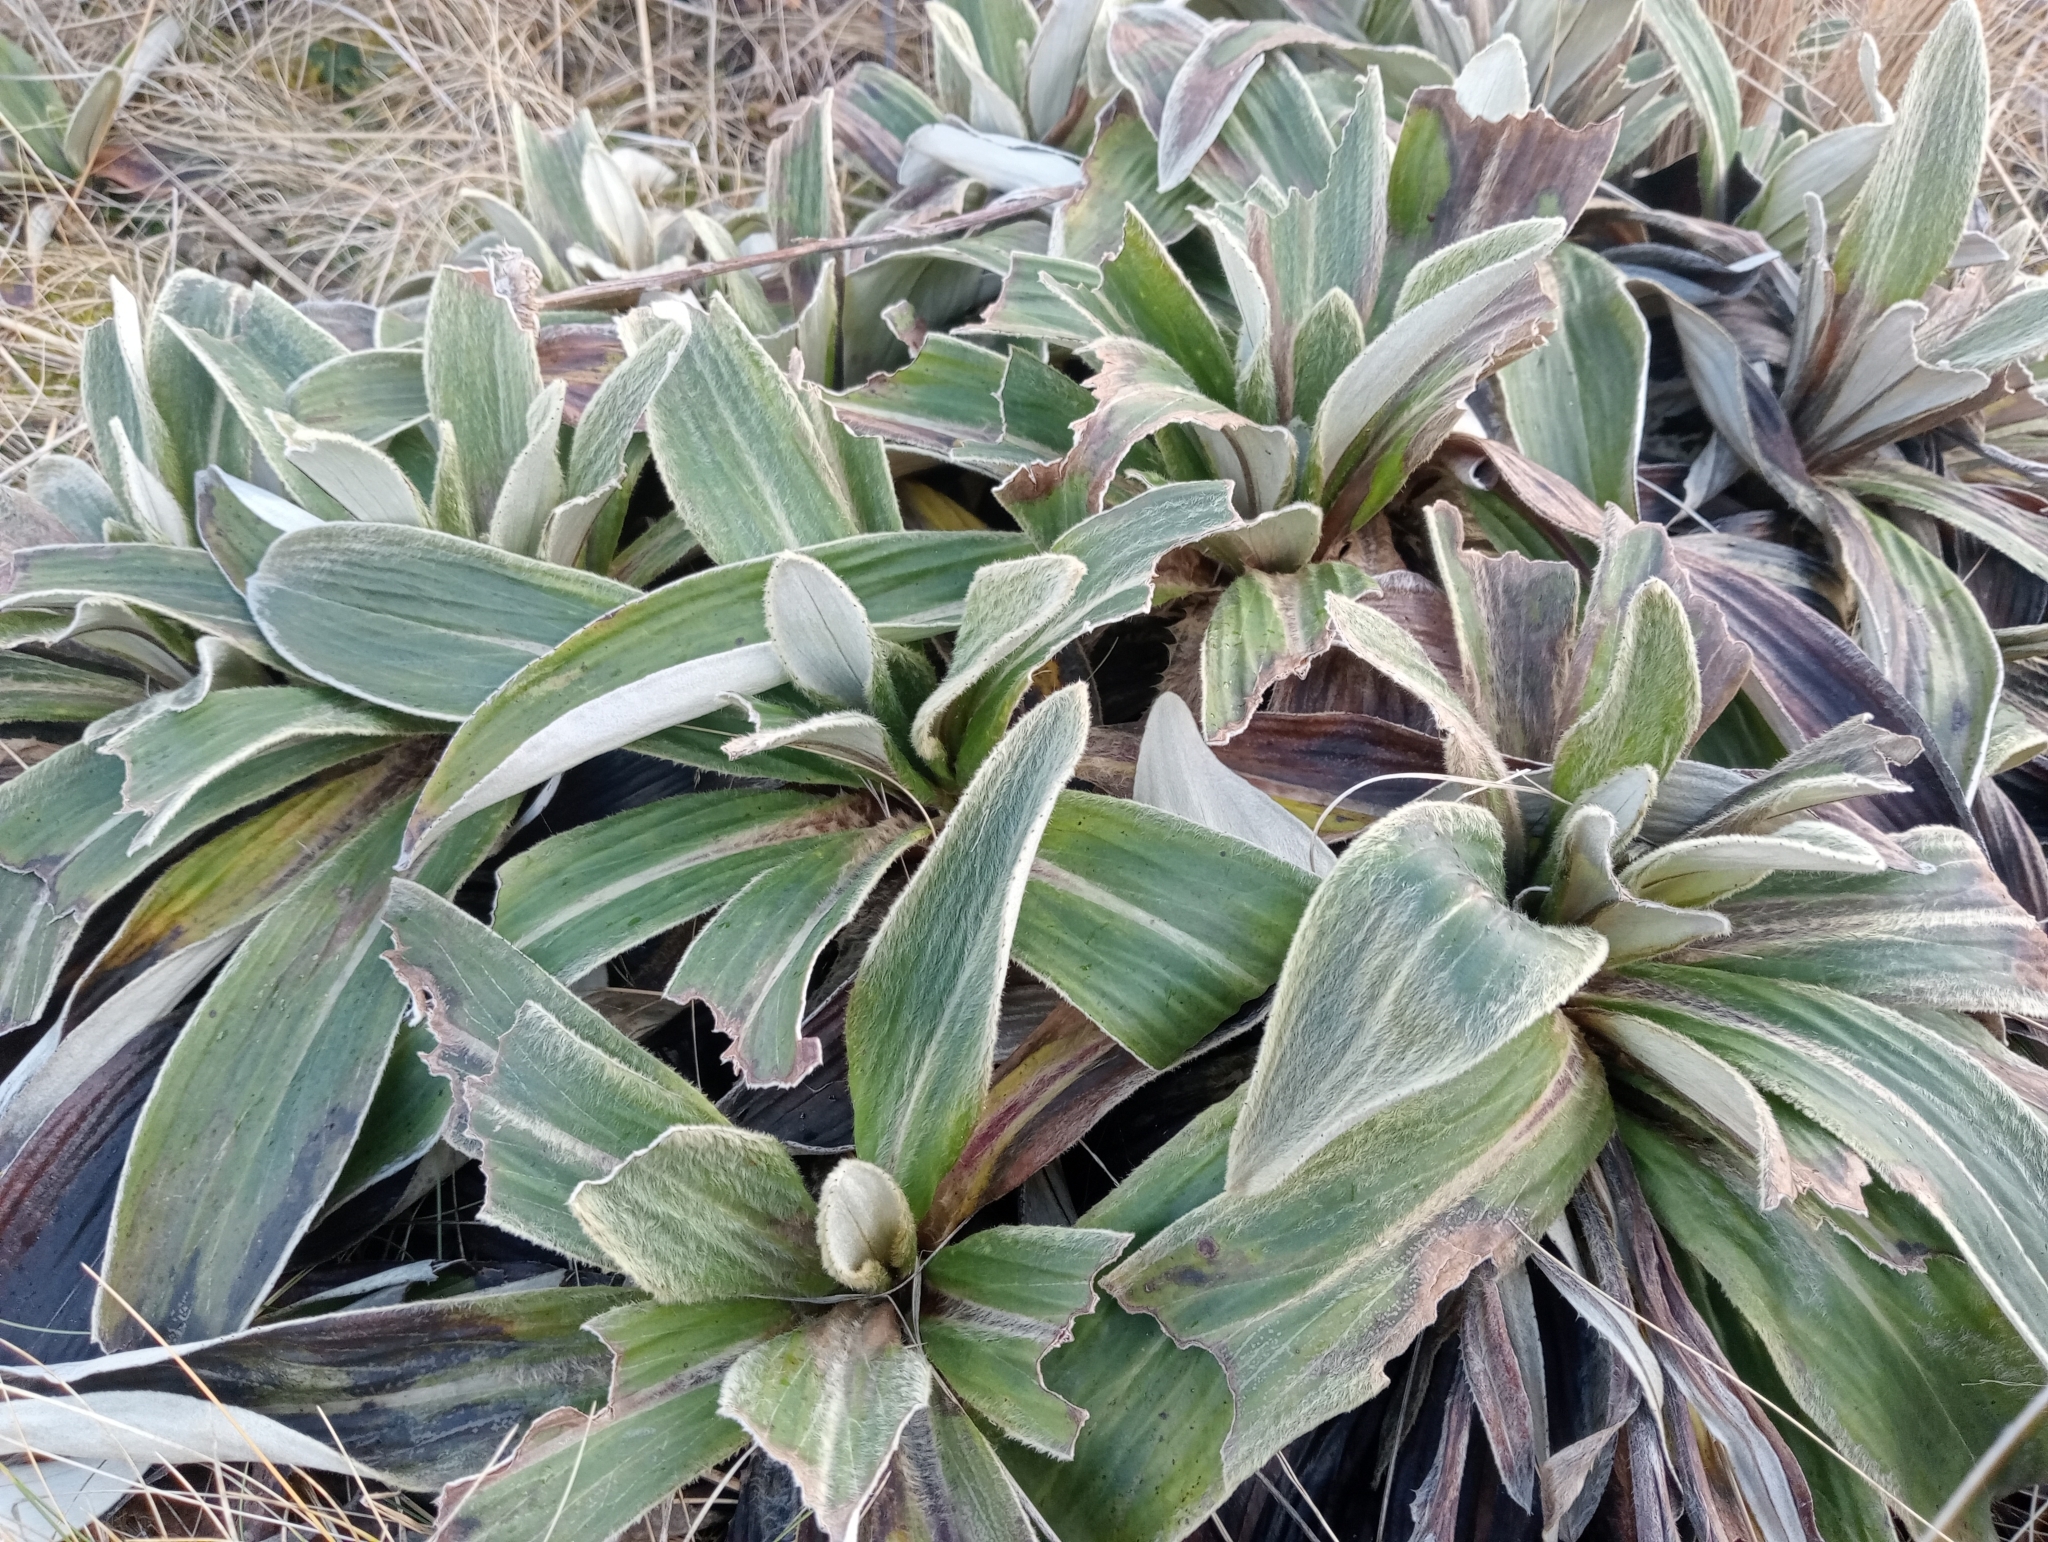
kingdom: Plantae
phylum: Tracheophyta
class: Magnoliopsida
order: Asterales
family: Asteraceae
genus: Celmisia
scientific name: Celmisia verbascifolia
